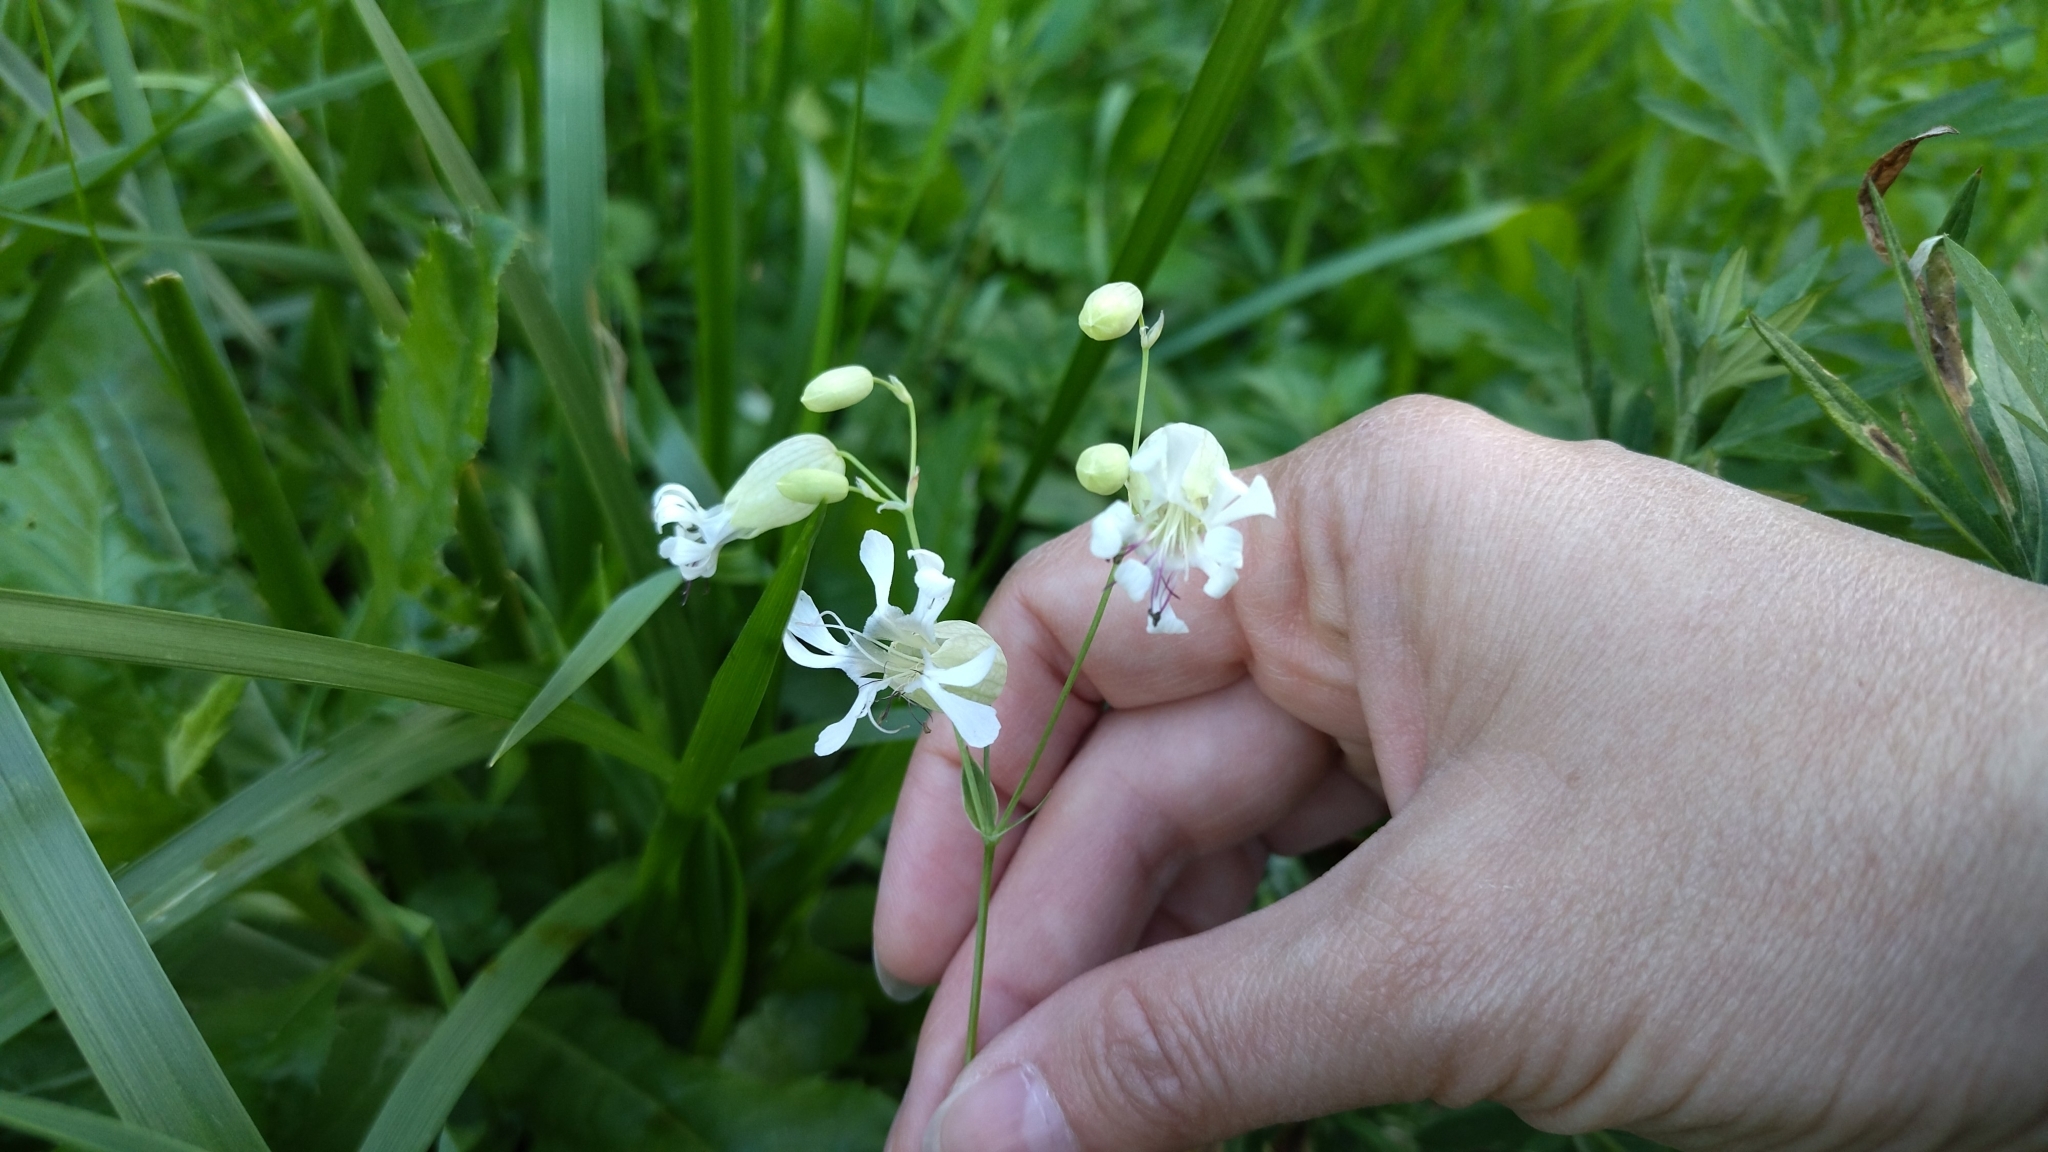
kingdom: Plantae
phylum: Tracheophyta
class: Magnoliopsida
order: Caryophyllales
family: Caryophyllaceae
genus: Silene
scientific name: Silene vulgaris
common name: Bladder campion
